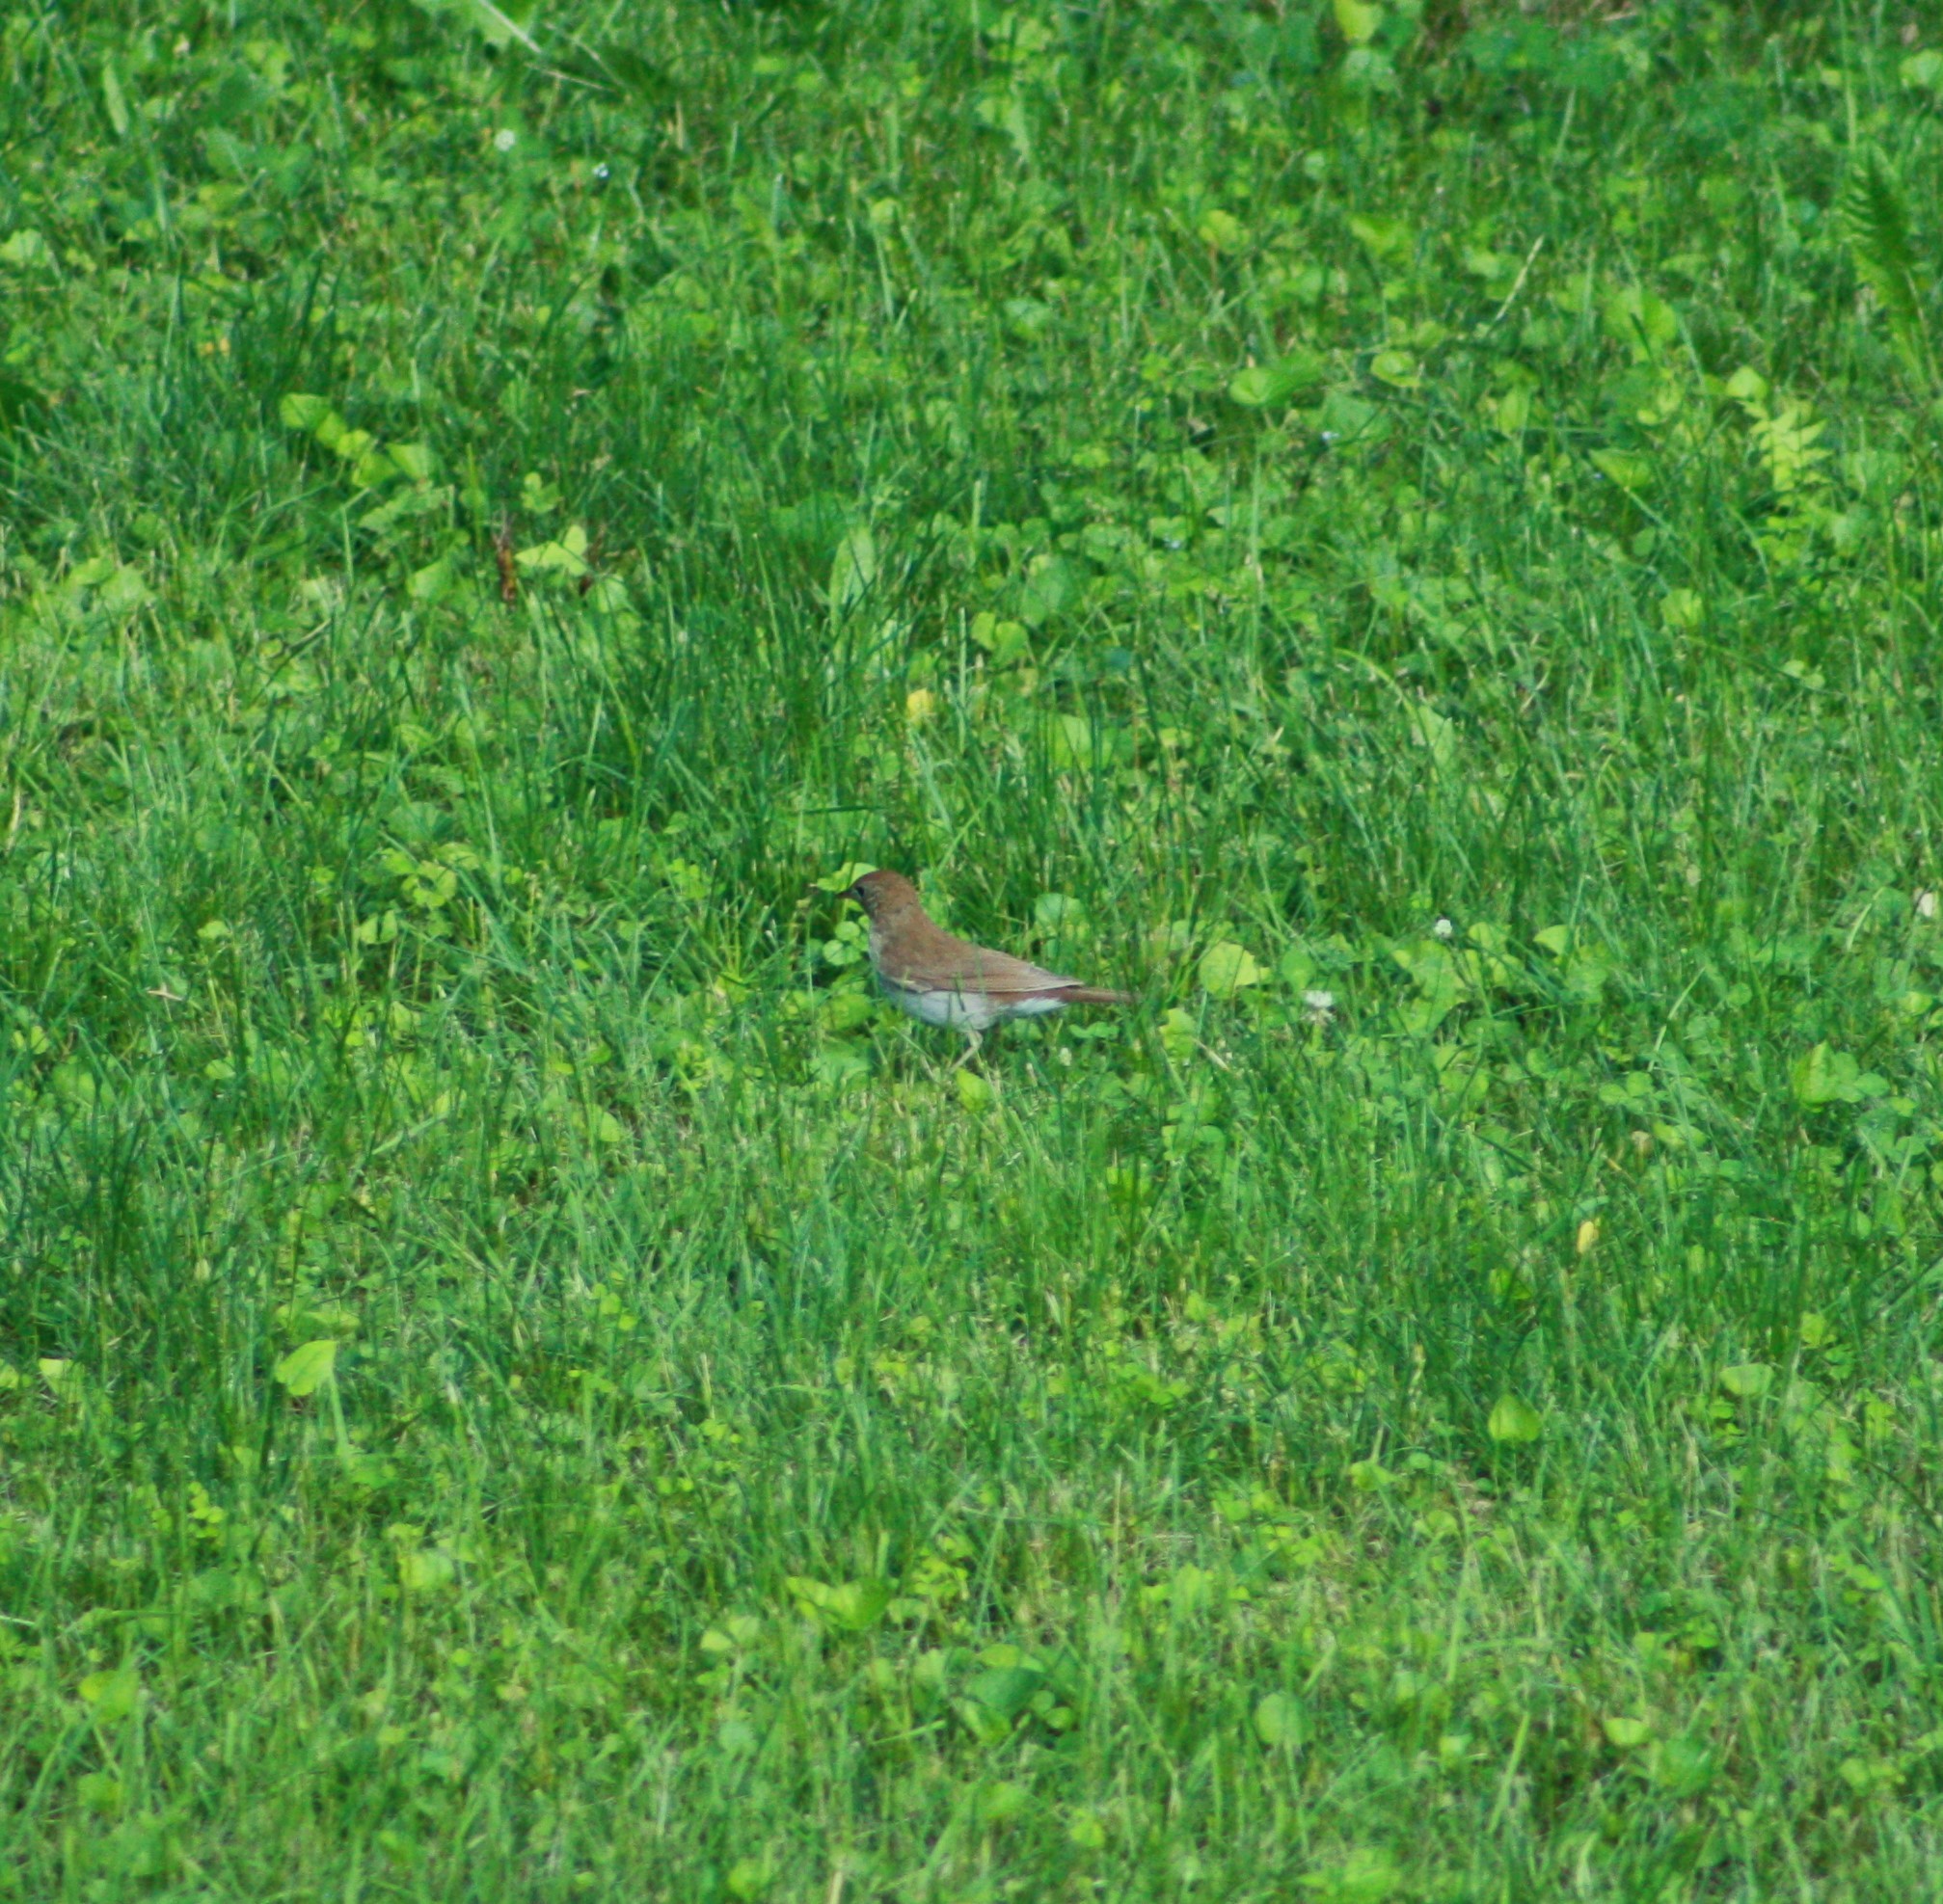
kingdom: Animalia
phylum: Chordata
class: Aves
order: Passeriformes
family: Turdidae
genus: Catharus
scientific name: Catharus fuscescens
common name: Veery
